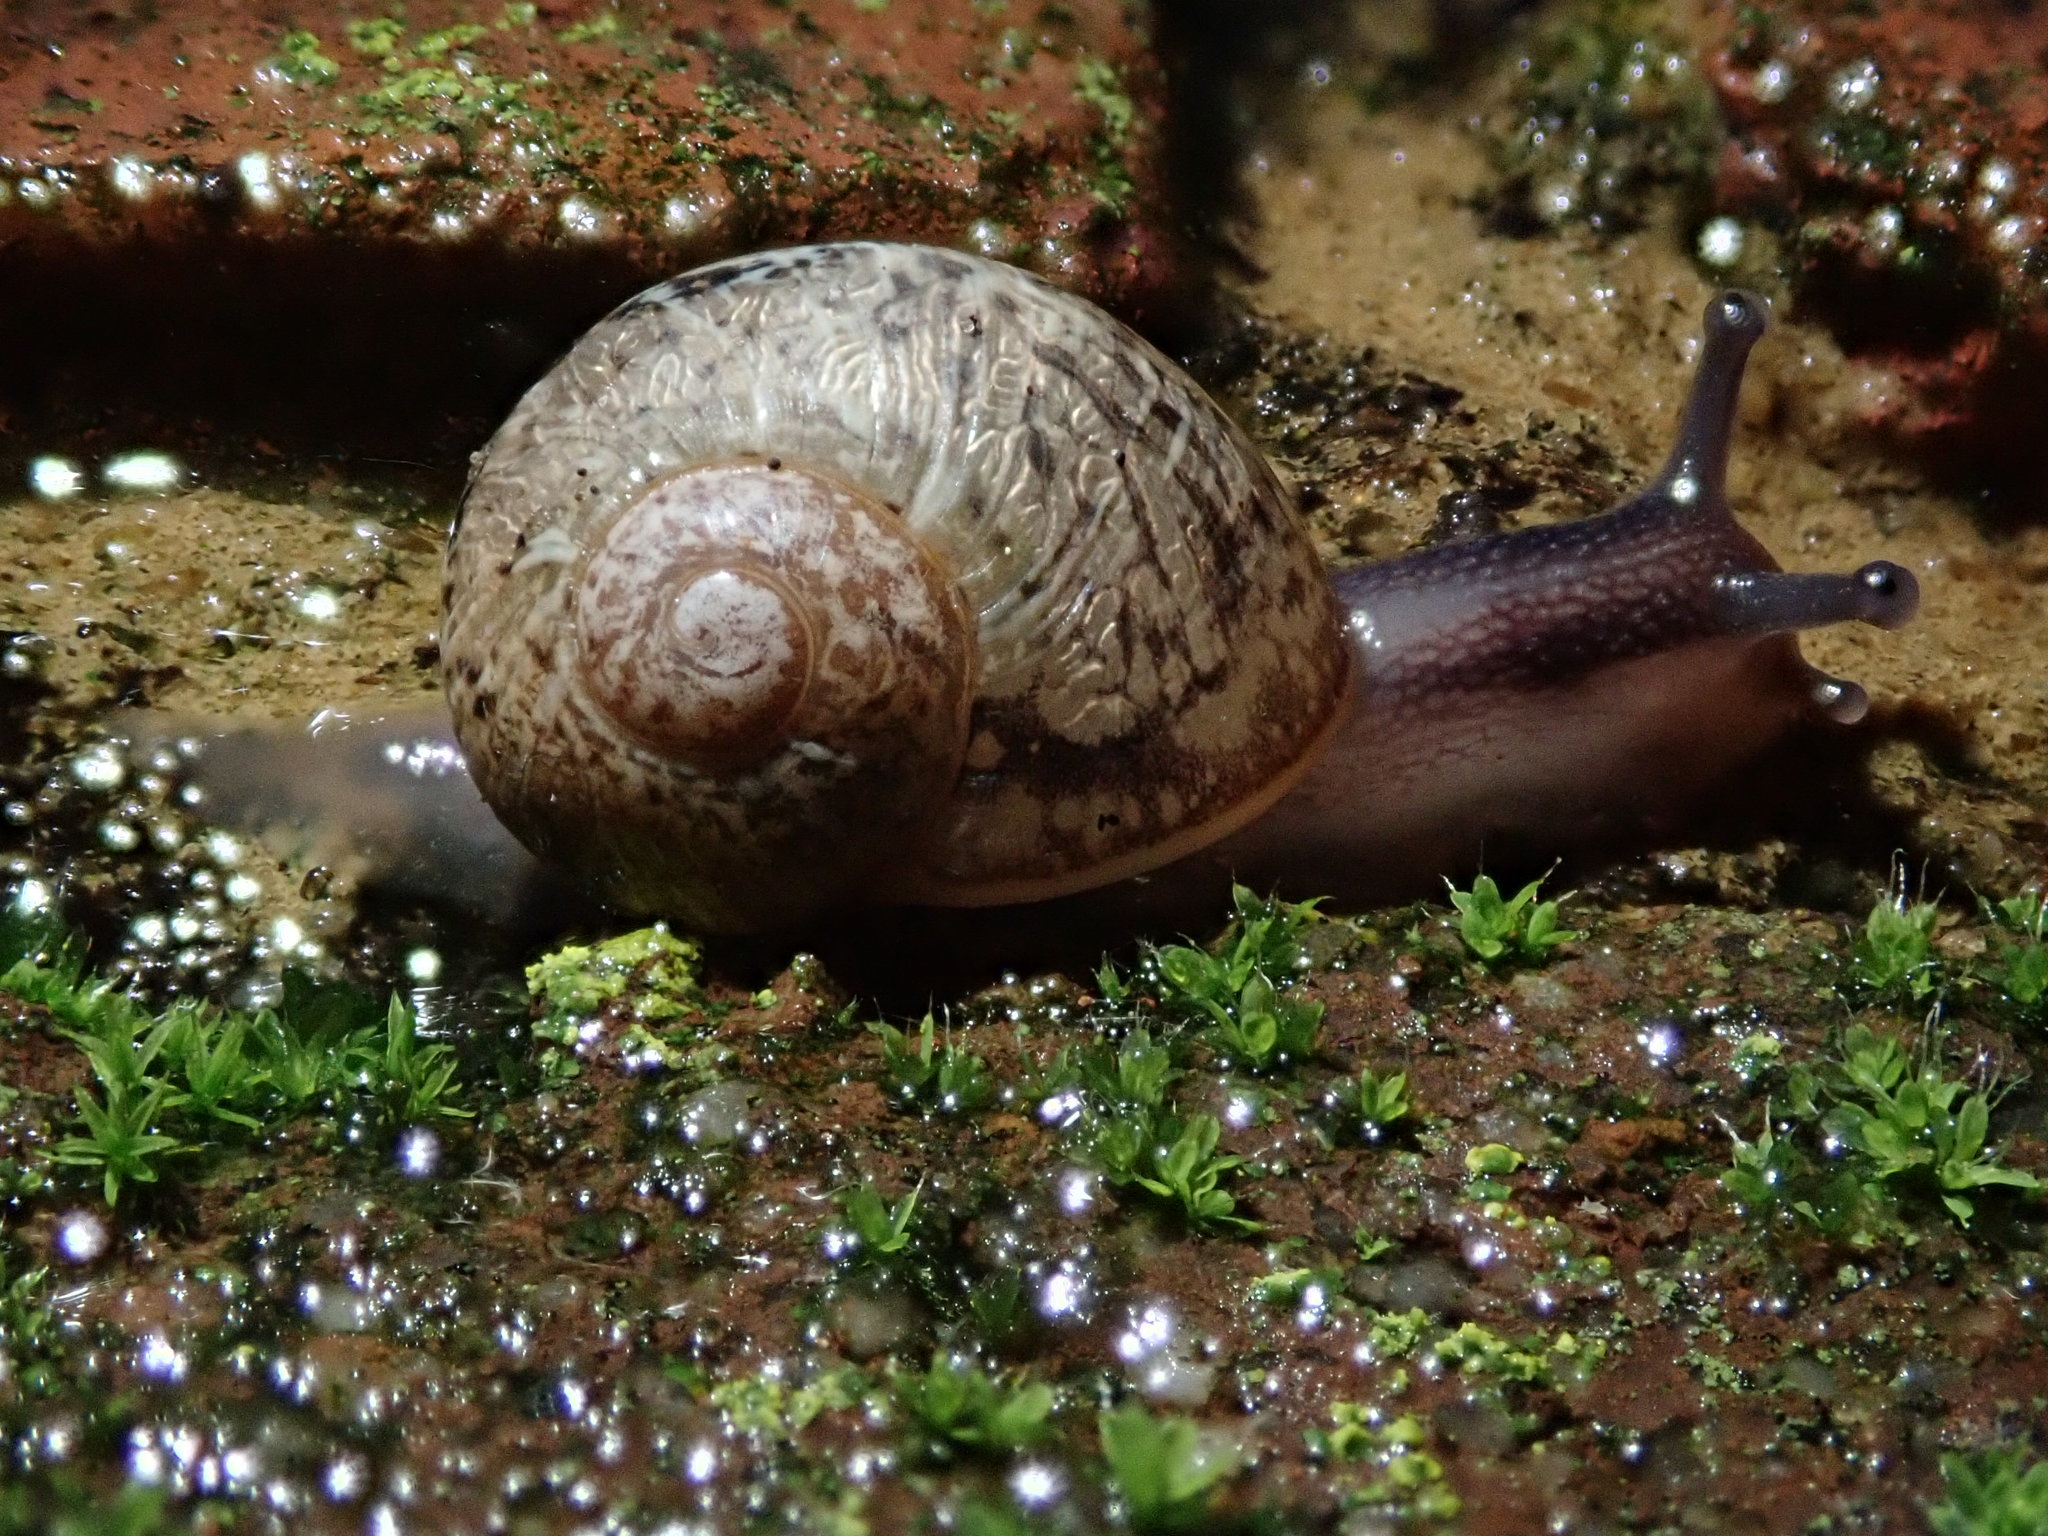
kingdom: Animalia
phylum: Mollusca
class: Gastropoda
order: Stylommatophora
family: Helicidae
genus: Cornu
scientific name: Cornu aspersum
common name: Brown garden snail
